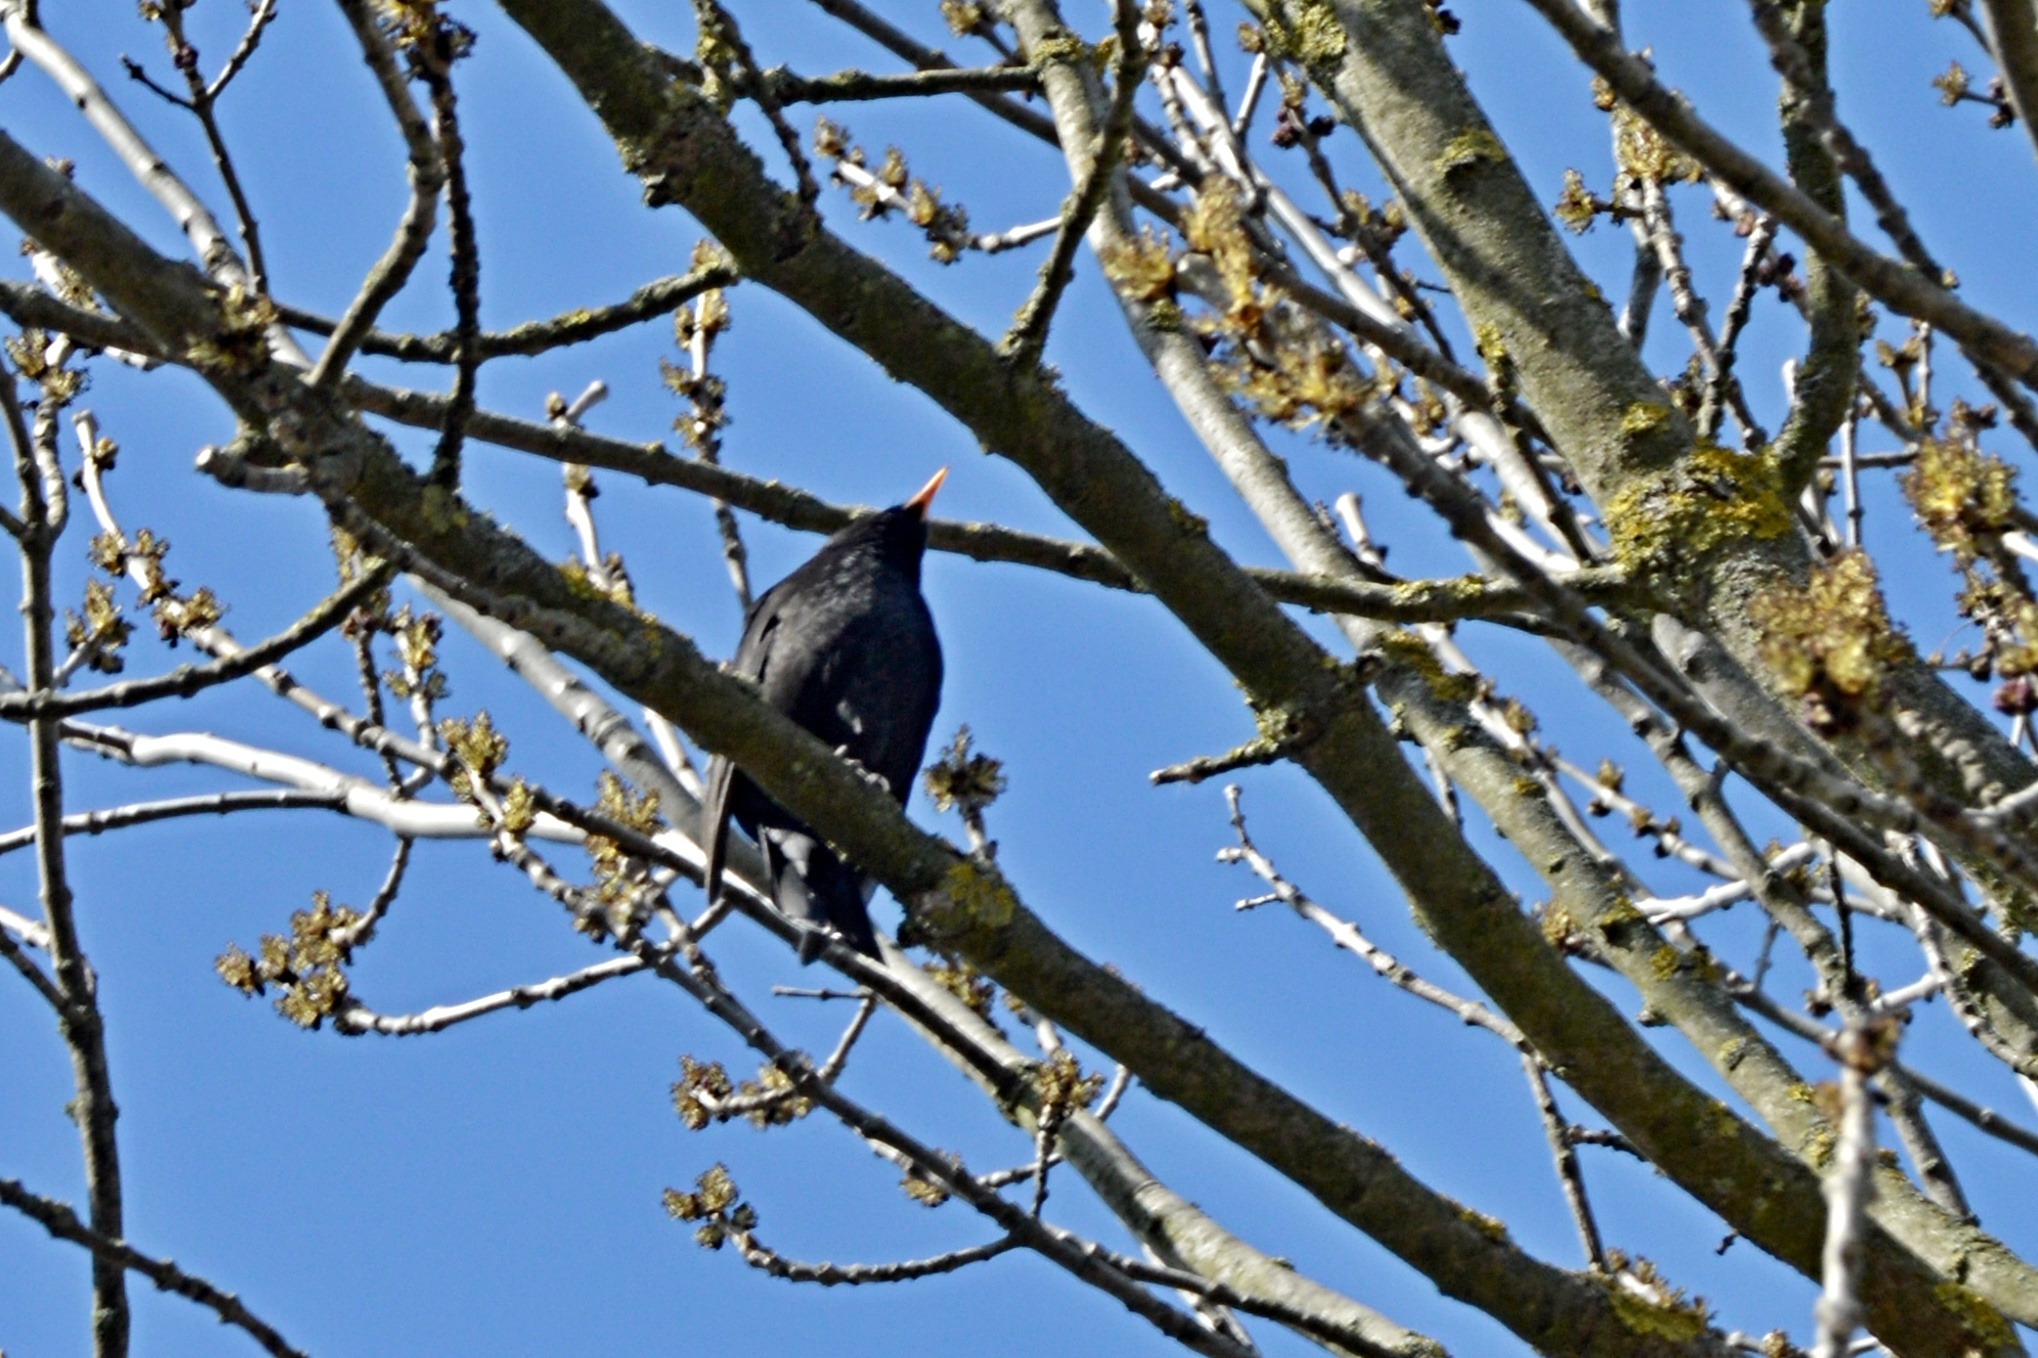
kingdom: Animalia
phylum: Chordata
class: Aves
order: Passeriformes
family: Turdidae
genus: Turdus
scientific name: Turdus merula
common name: Common blackbird
